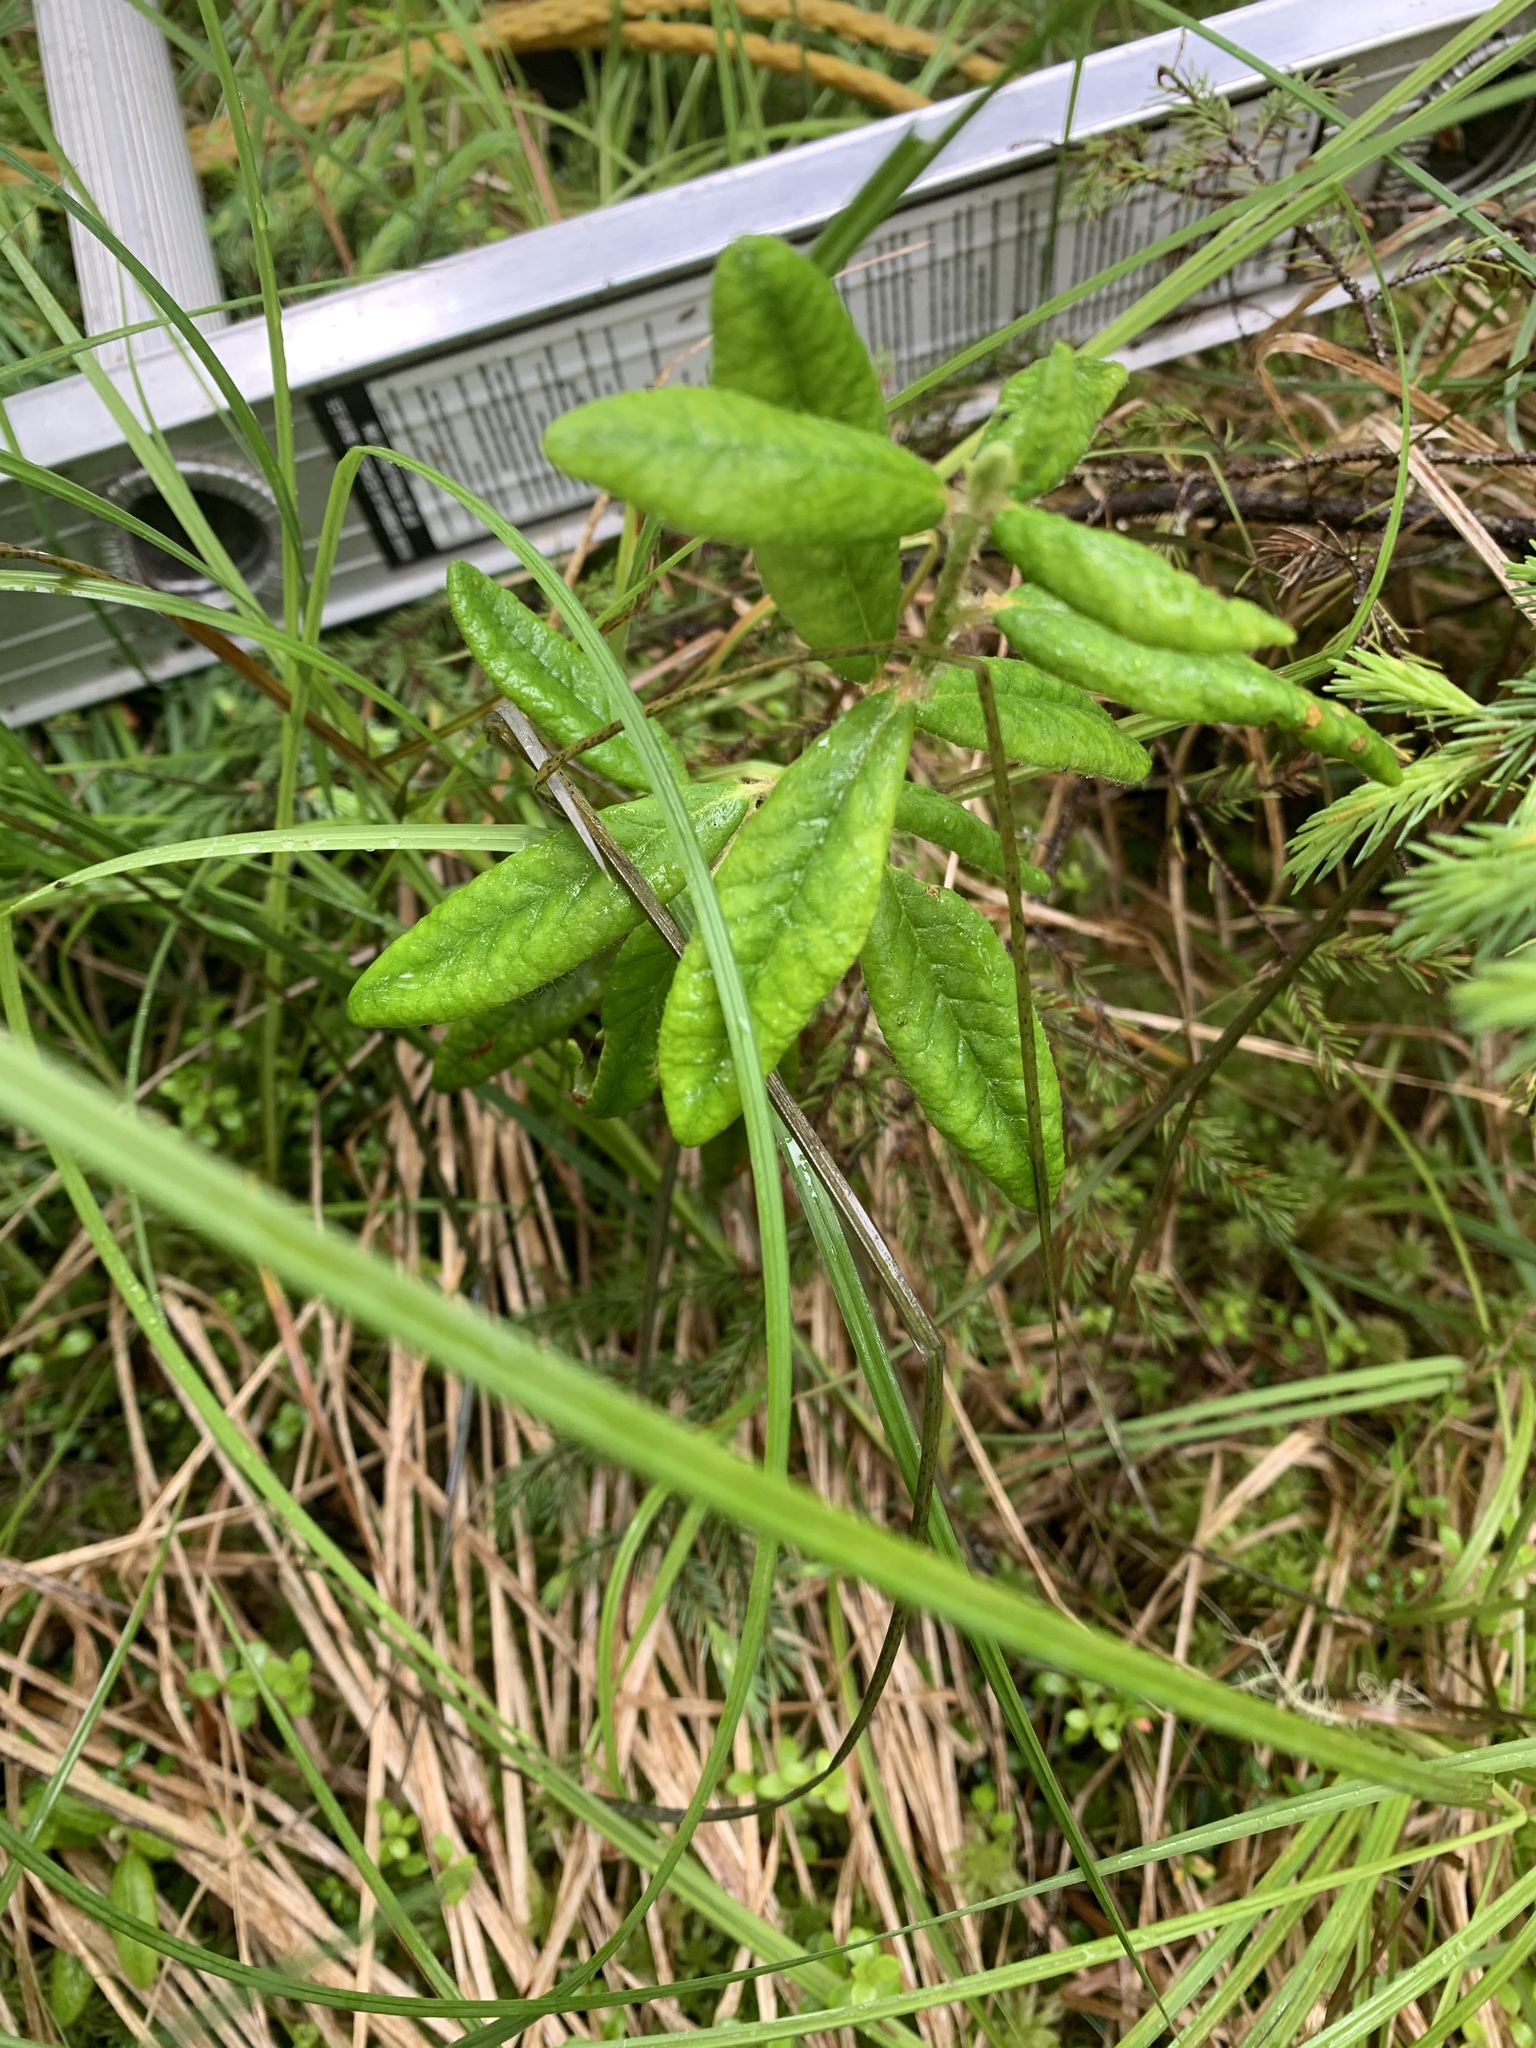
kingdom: Plantae
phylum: Tracheophyta
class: Magnoliopsida
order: Ericales
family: Ericaceae
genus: Rhododendron
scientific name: Rhododendron groenlandicum
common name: Bog labrador tea
